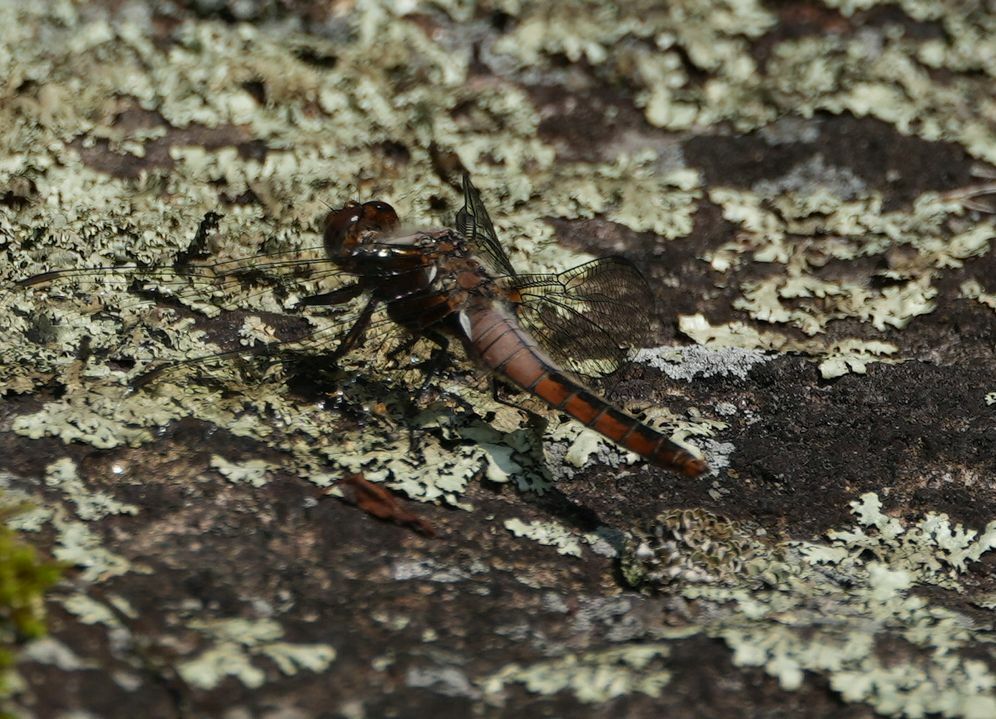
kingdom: Animalia
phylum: Arthropoda
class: Insecta
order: Odonata
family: Libellulidae
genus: Ladona
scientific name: Ladona julia
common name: Chalk-fronted corporal
